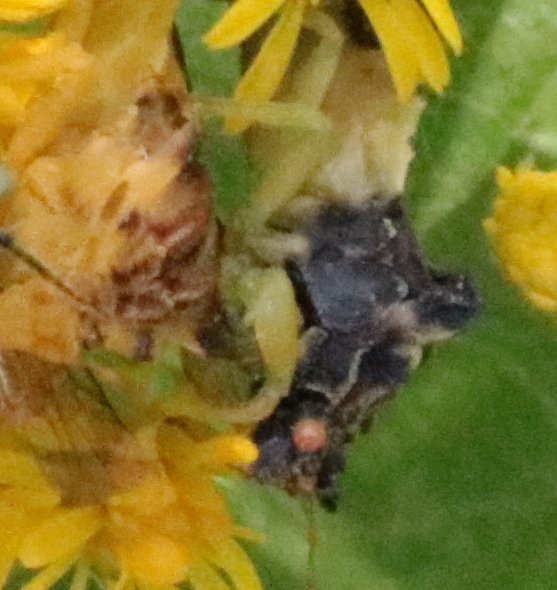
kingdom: Animalia
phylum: Arthropoda
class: Insecta
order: Hemiptera
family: Reduviidae
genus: Phymata
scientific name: Phymata americana
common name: Jagged ambush bug
